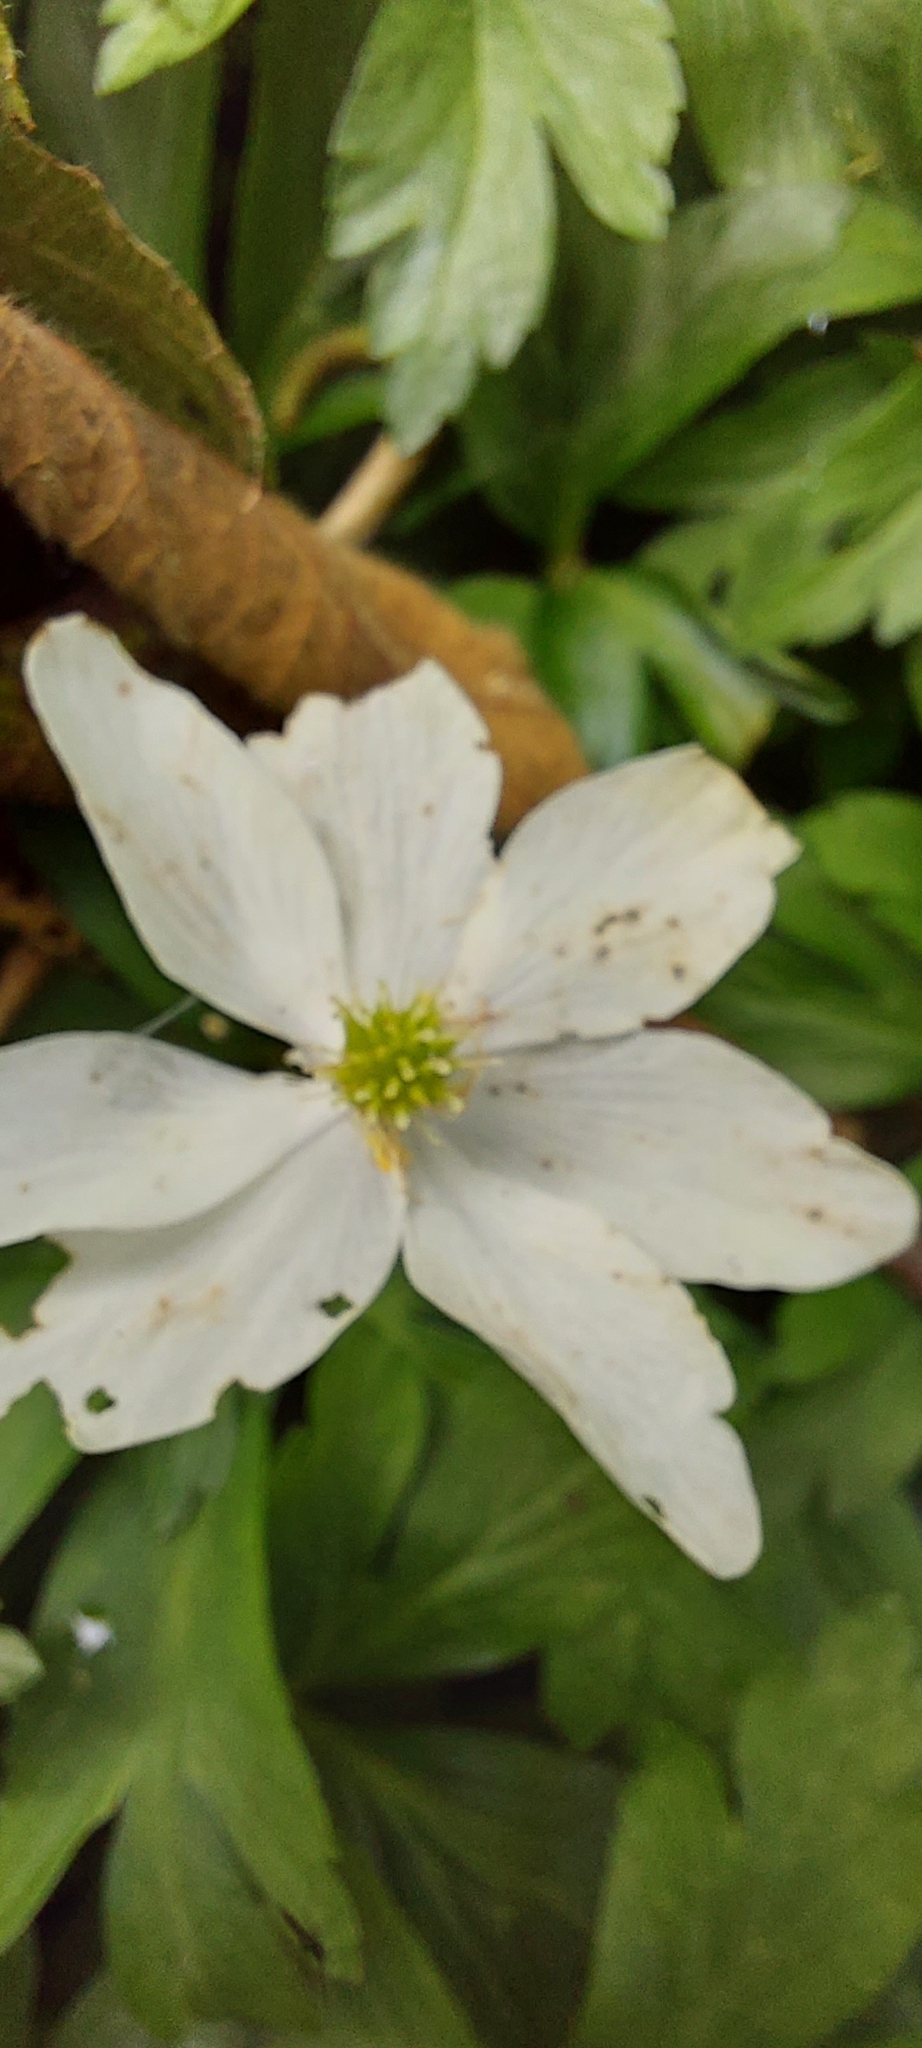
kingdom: Plantae
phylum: Tracheophyta
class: Magnoliopsida
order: Ranunculales
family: Ranunculaceae
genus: Anemone
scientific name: Anemone nemorosa
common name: Wood anemone
